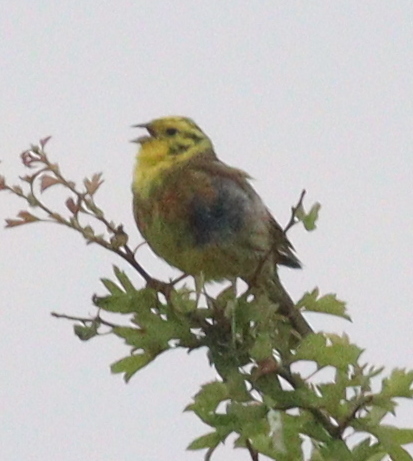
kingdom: Animalia
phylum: Chordata
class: Aves
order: Passeriformes
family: Emberizidae
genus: Emberiza
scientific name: Emberiza citrinella
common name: Yellowhammer
